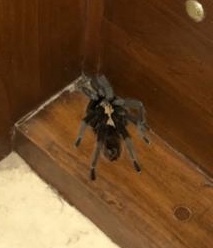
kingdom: Animalia
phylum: Arthropoda
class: Arachnida
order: Araneae
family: Theraphosidae
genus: Aphonopelma
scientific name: Aphonopelma chalcodes
